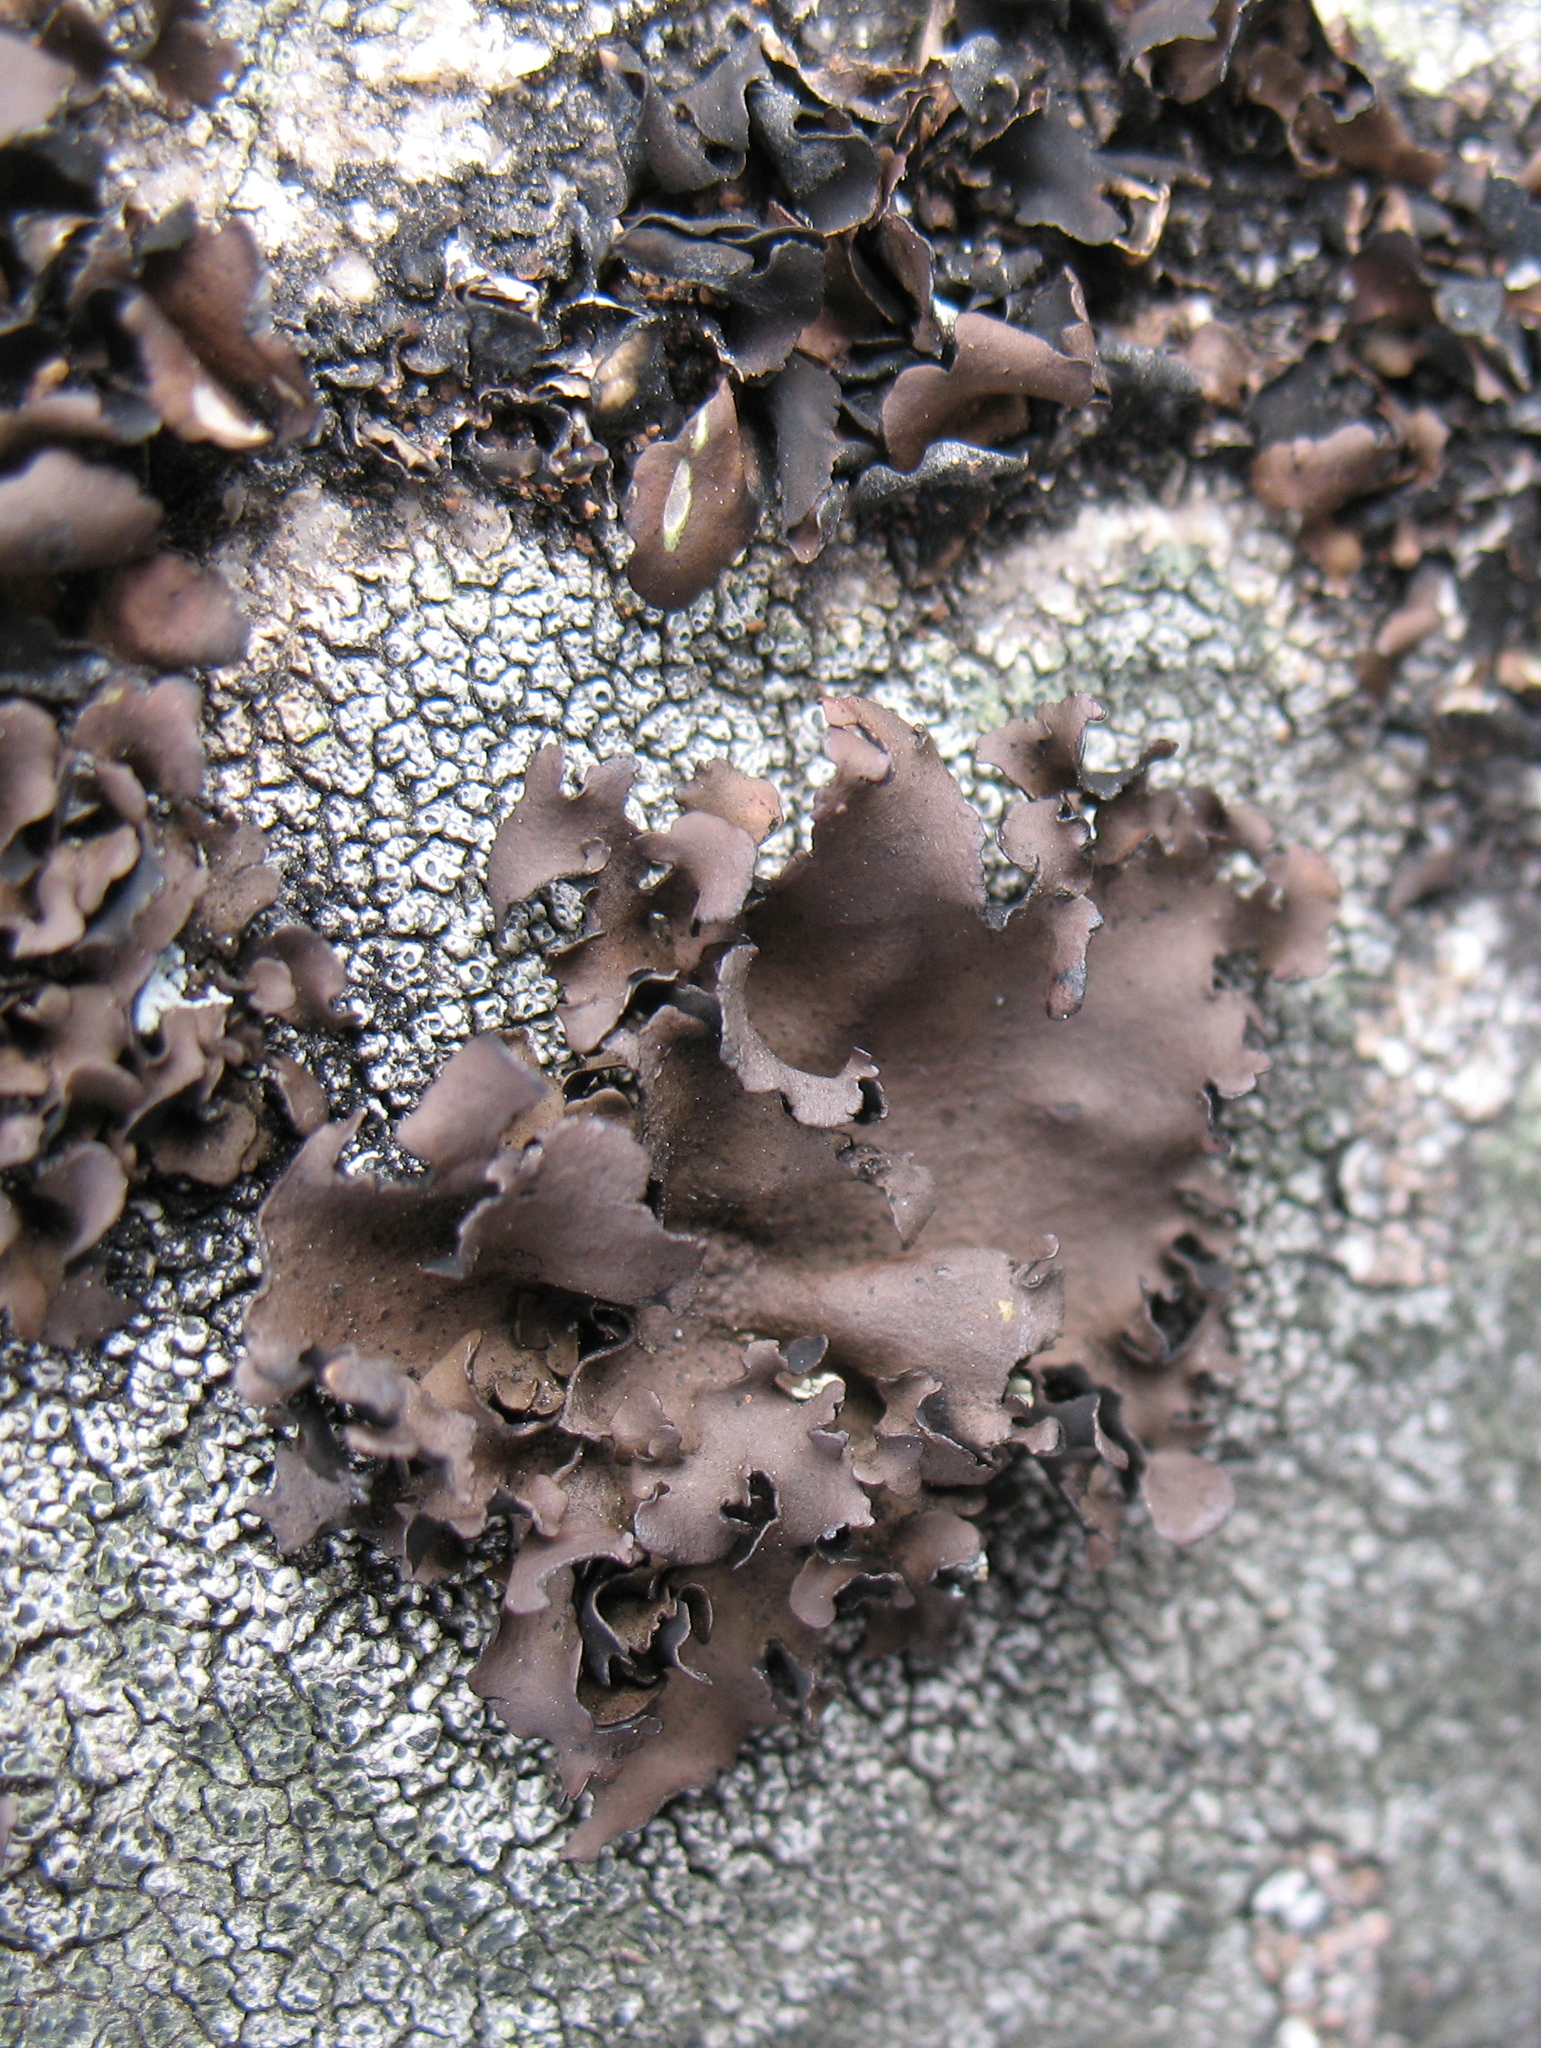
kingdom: Fungi
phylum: Ascomycota
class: Lecanoromycetes
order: Umbilicariales
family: Umbilicariaceae
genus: Umbilicaria
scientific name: Umbilicaria polyphylla
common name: Petalled rocktripe lichen
